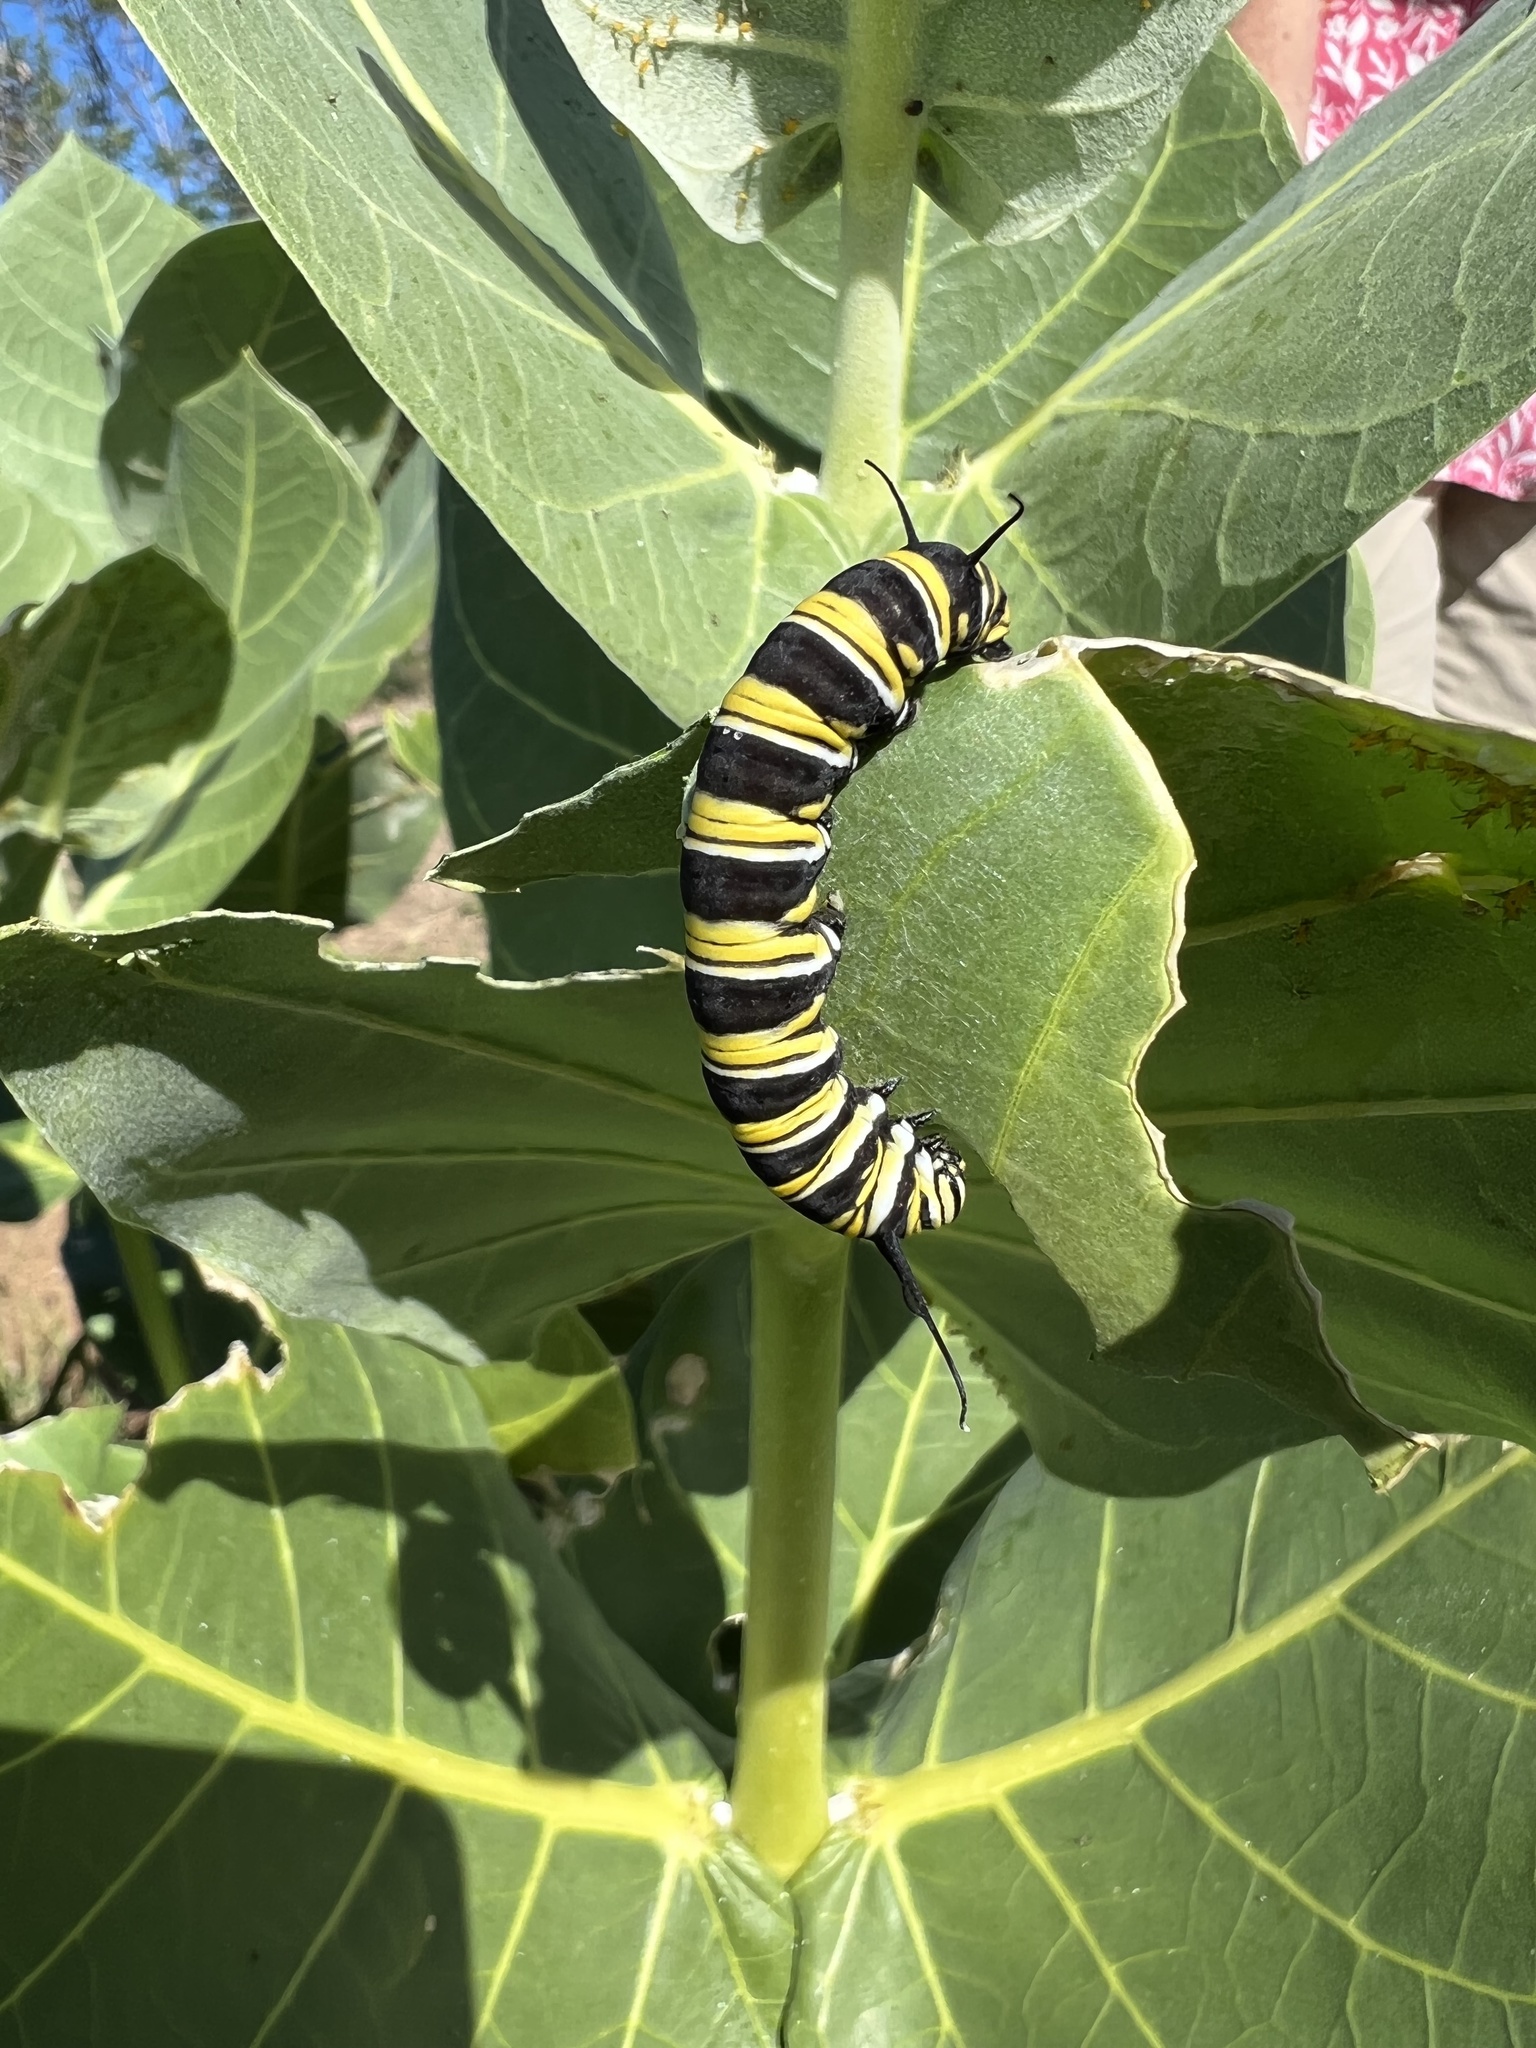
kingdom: Animalia
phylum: Arthropoda
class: Insecta
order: Lepidoptera
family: Nymphalidae
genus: Danaus
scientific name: Danaus plexippus
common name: Monarch
